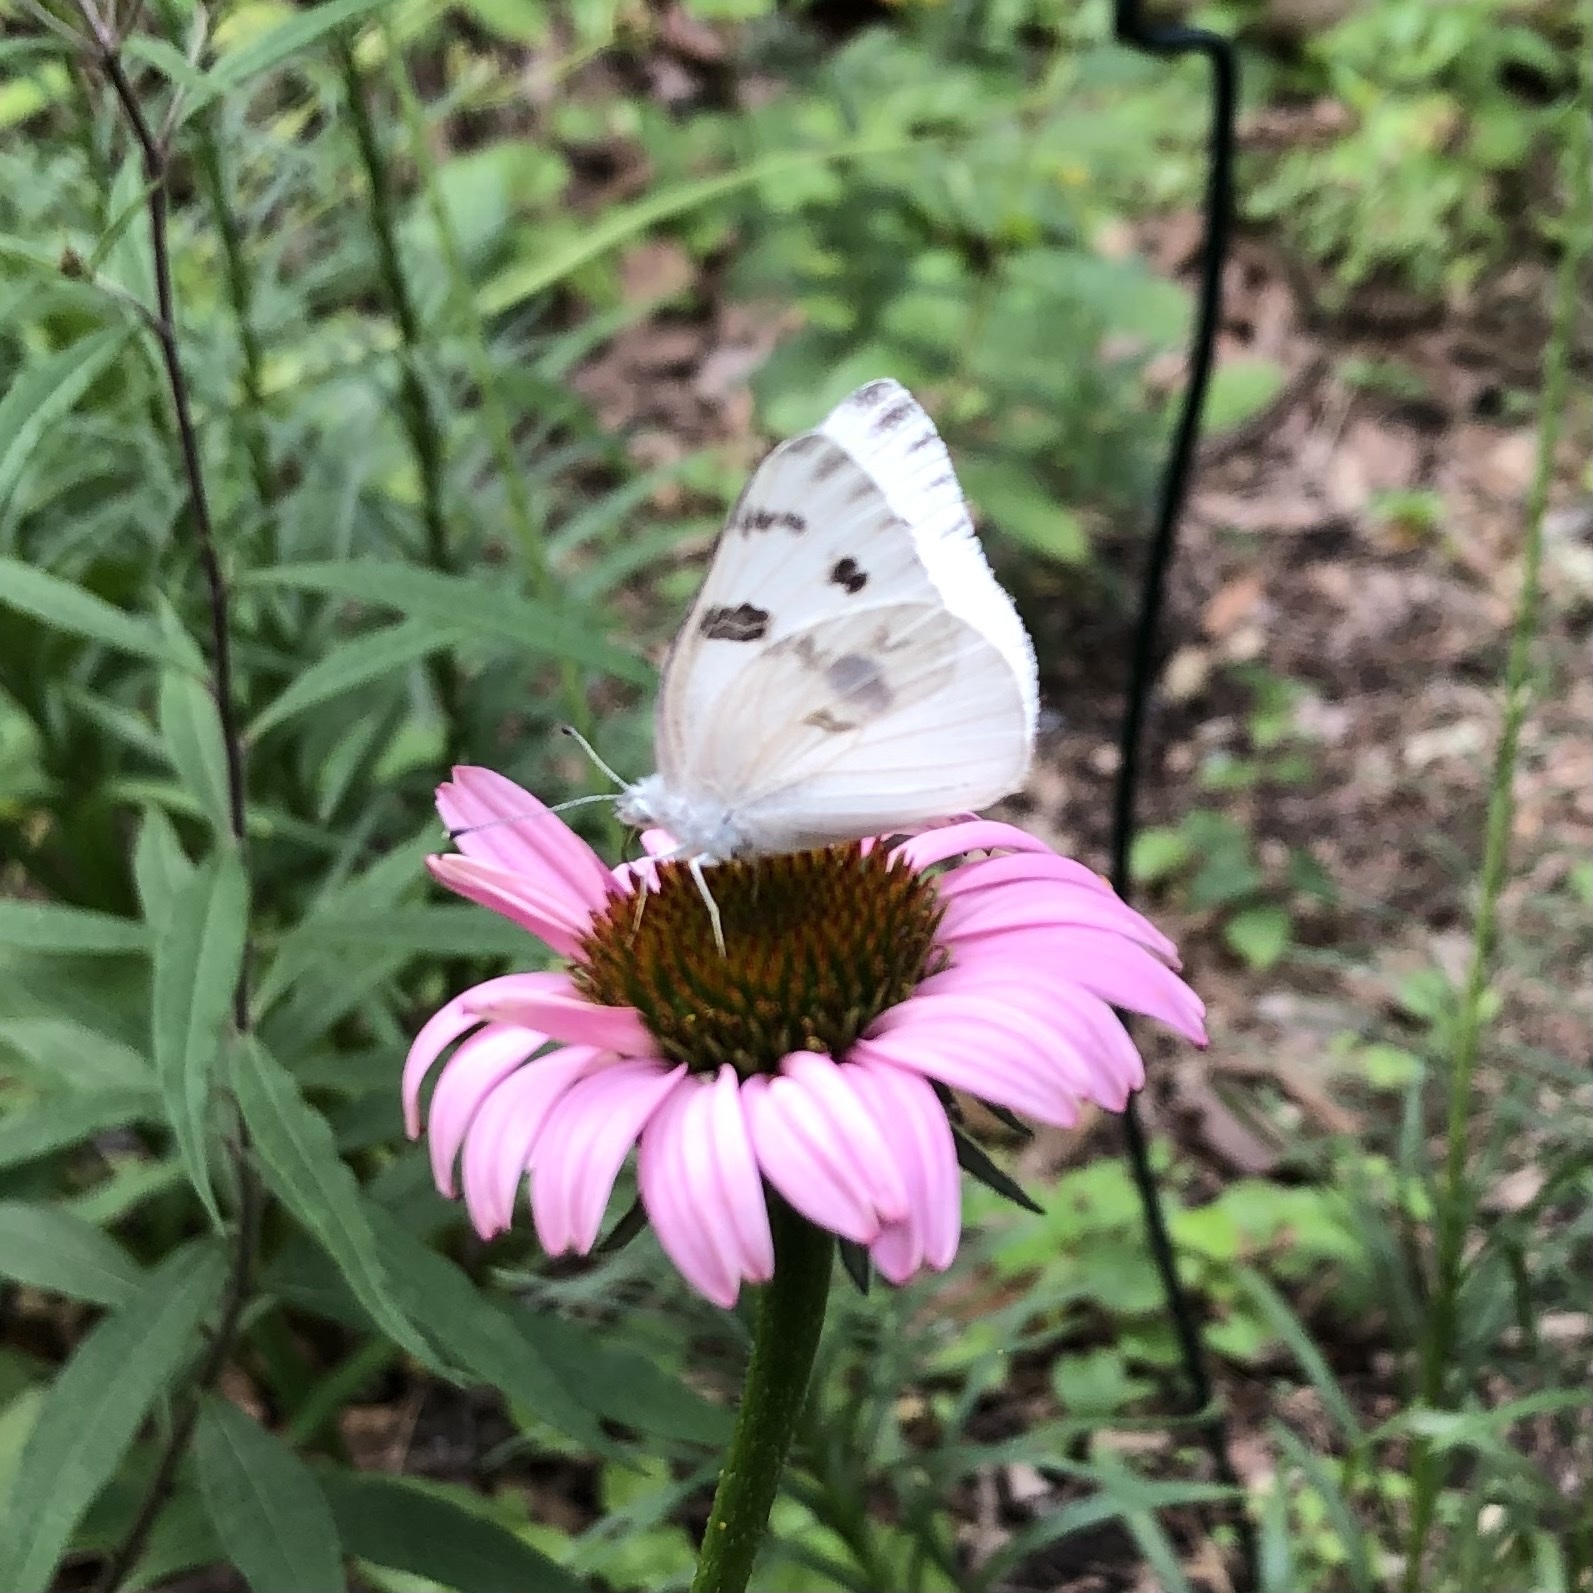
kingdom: Animalia
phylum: Arthropoda
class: Insecta
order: Lepidoptera
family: Pieridae
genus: Pontia
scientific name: Pontia protodice
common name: Checkered white
